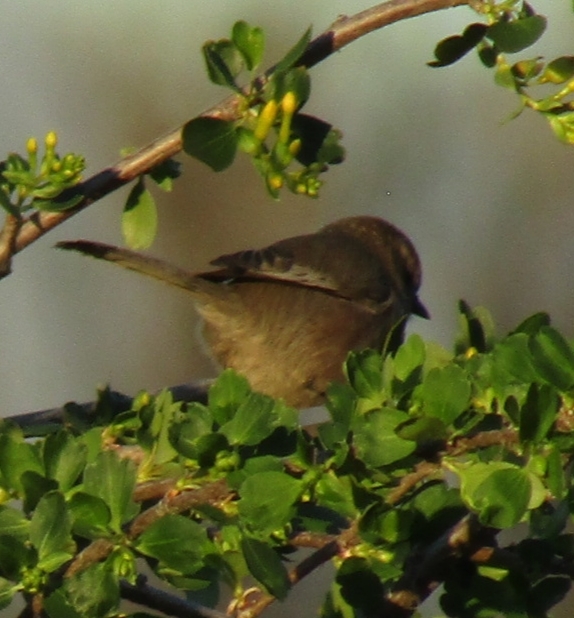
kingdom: Animalia
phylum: Chordata
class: Aves
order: Passeriformes
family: Aegithalidae
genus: Psaltriparus
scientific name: Psaltriparus minimus
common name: American bushtit
